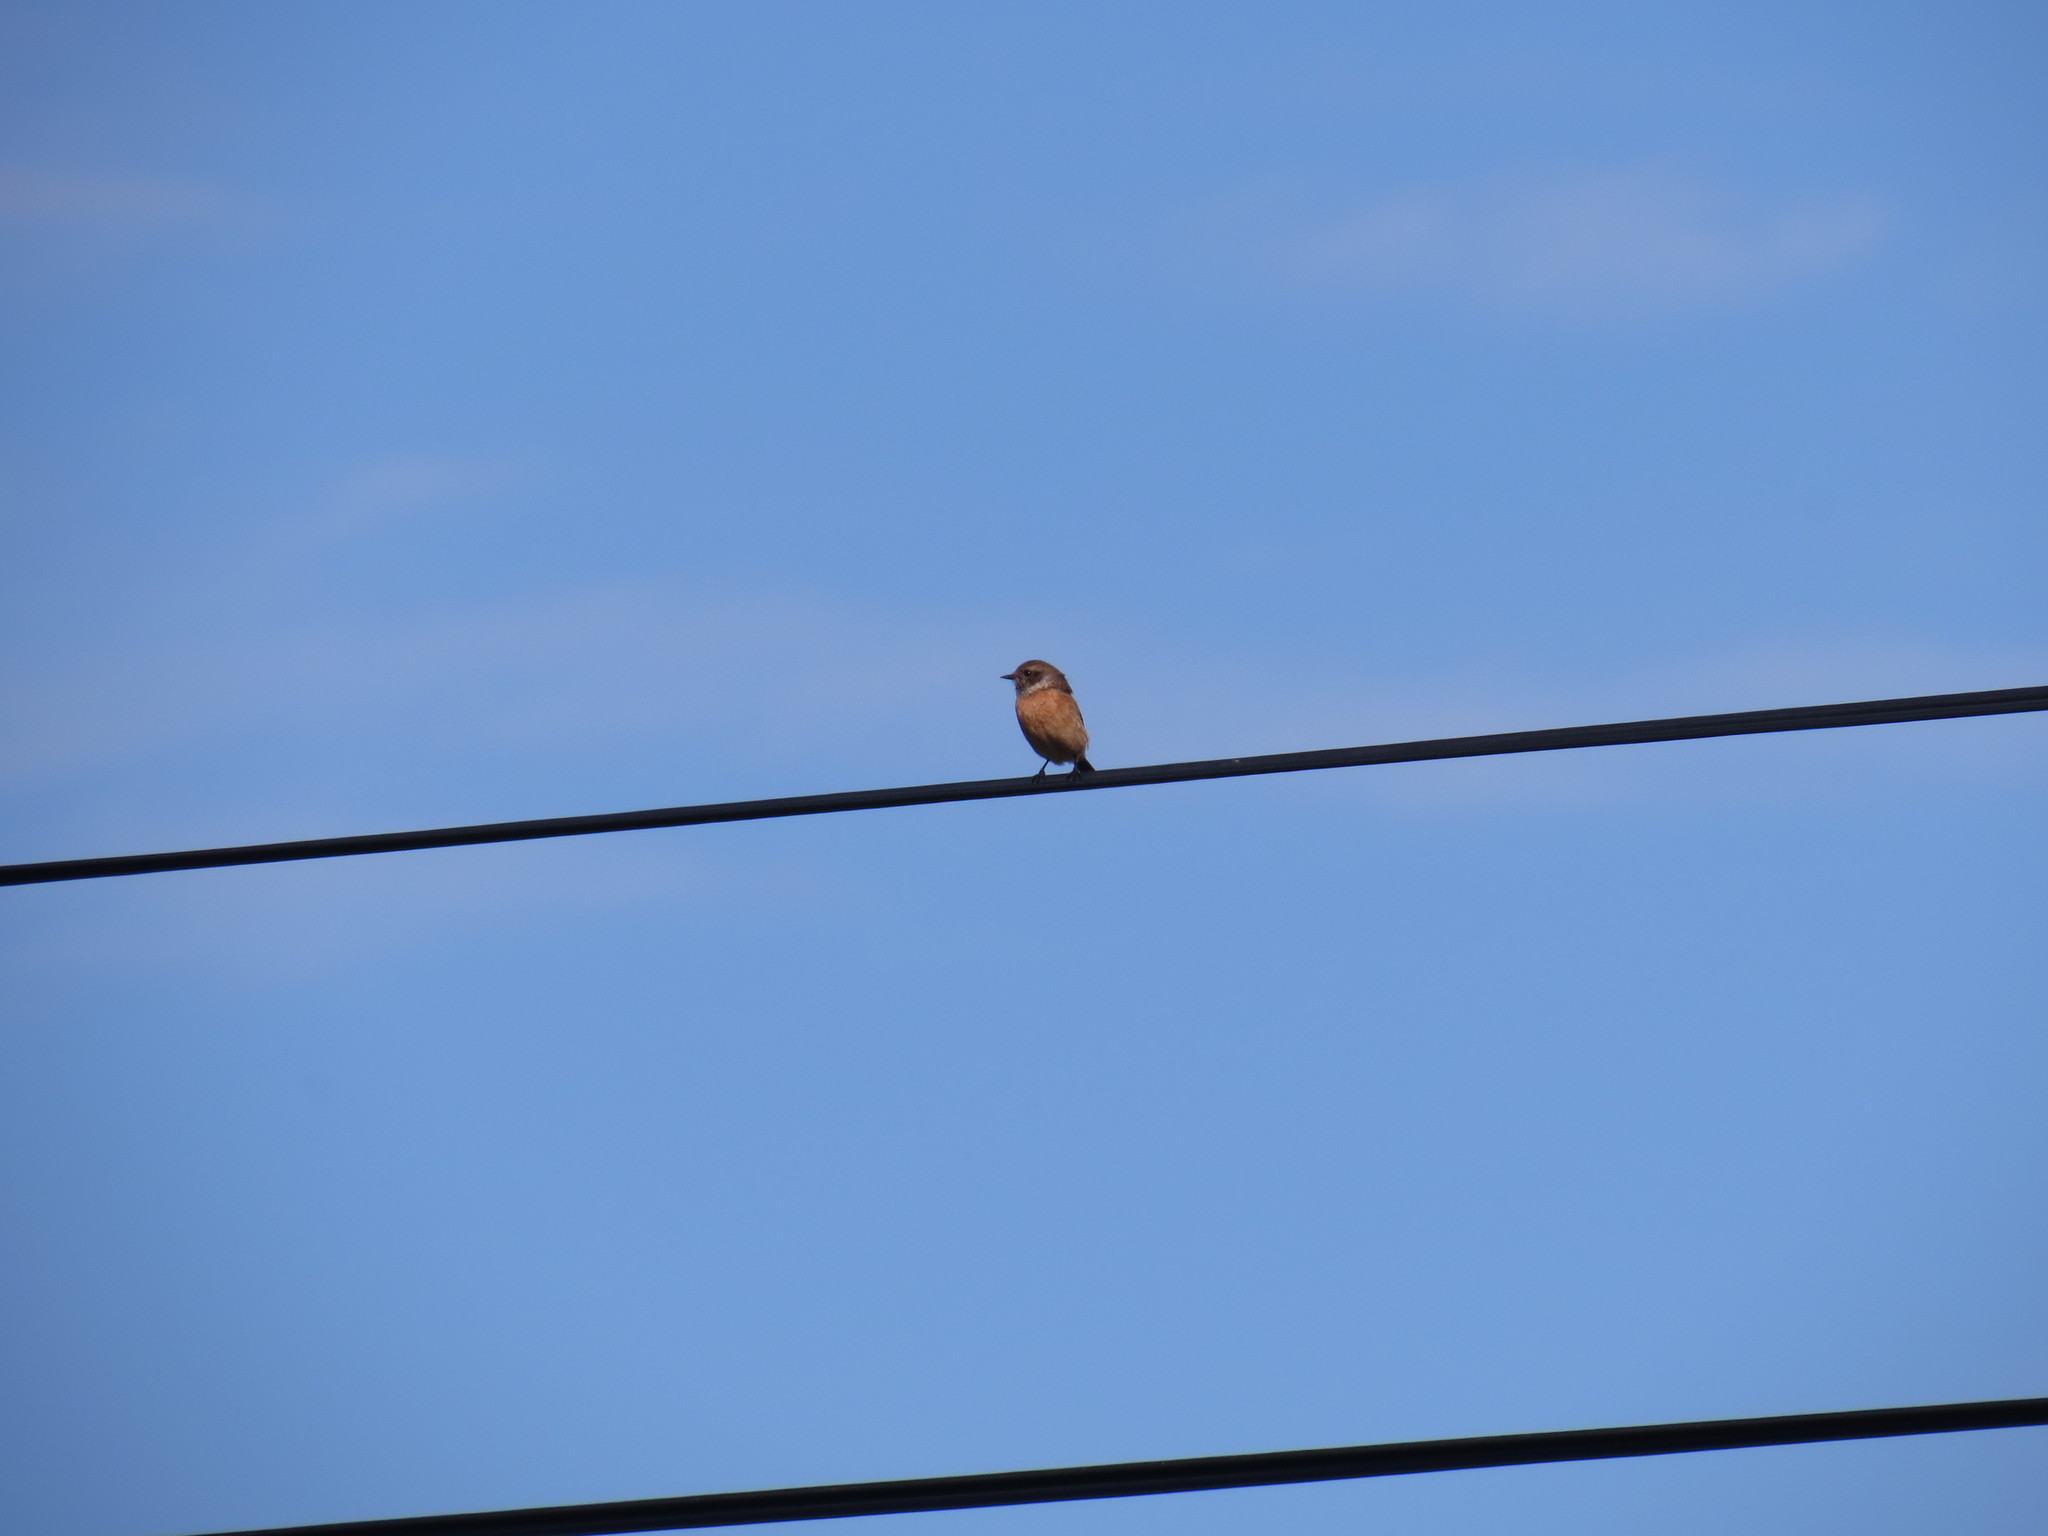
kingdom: Animalia
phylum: Chordata
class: Aves
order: Passeriformes
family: Muscicapidae
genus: Saxicola
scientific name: Saxicola rubicola
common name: European stonechat
